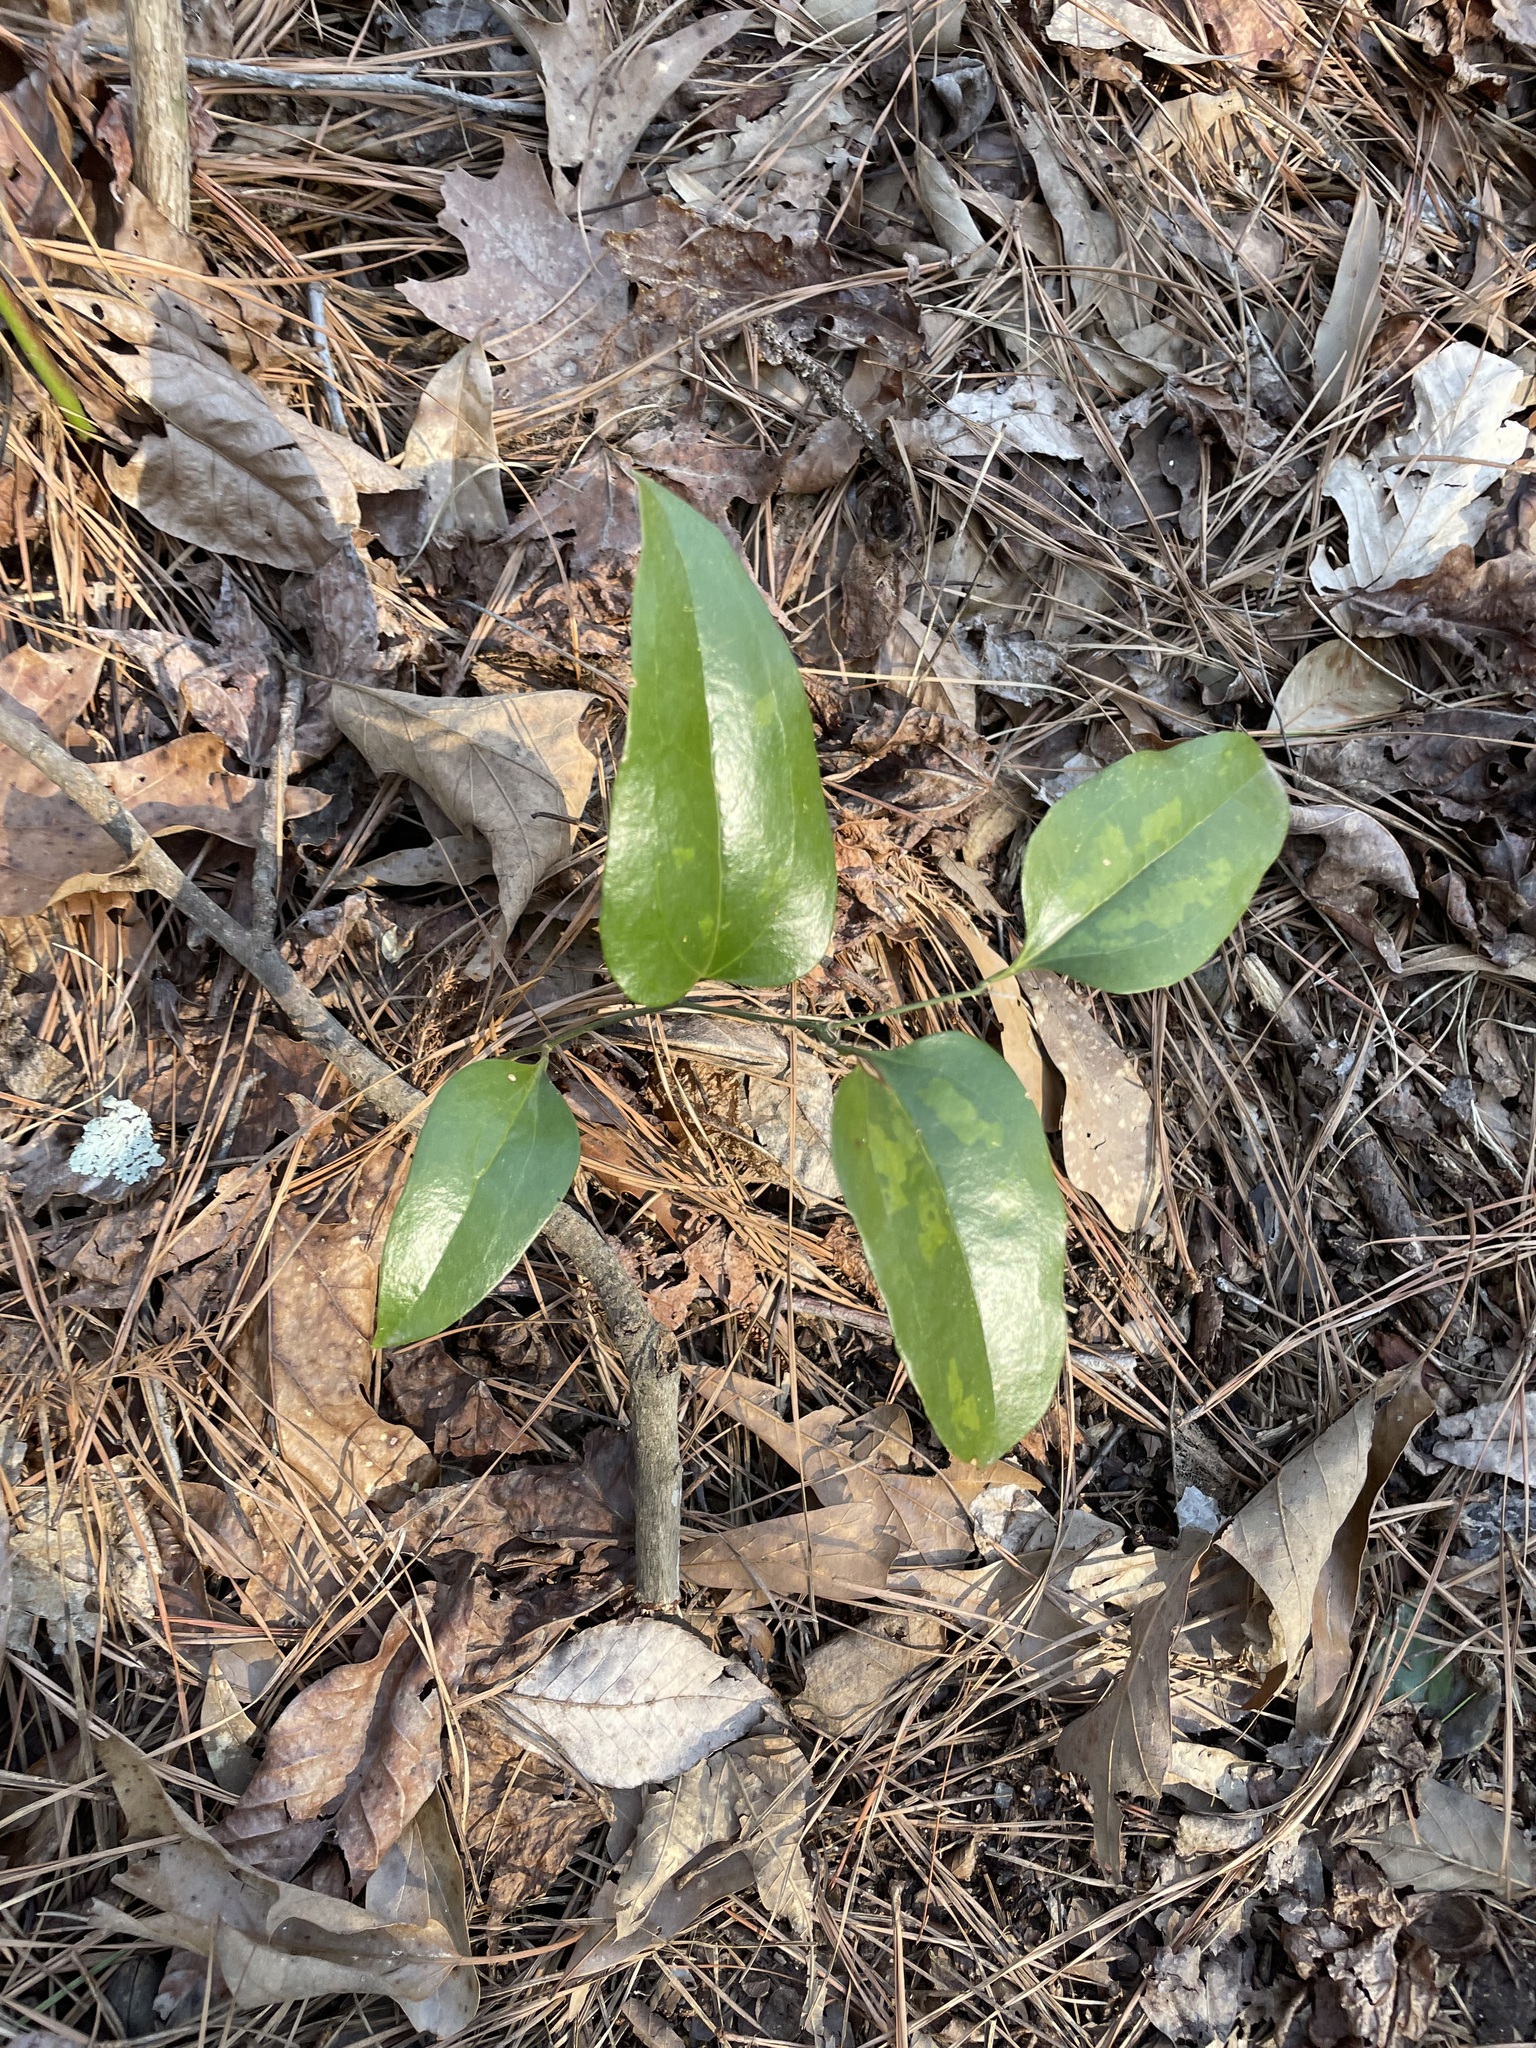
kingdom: Plantae
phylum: Tracheophyta
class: Liliopsida
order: Liliales
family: Smilacaceae
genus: Smilax
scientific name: Smilax maritima
